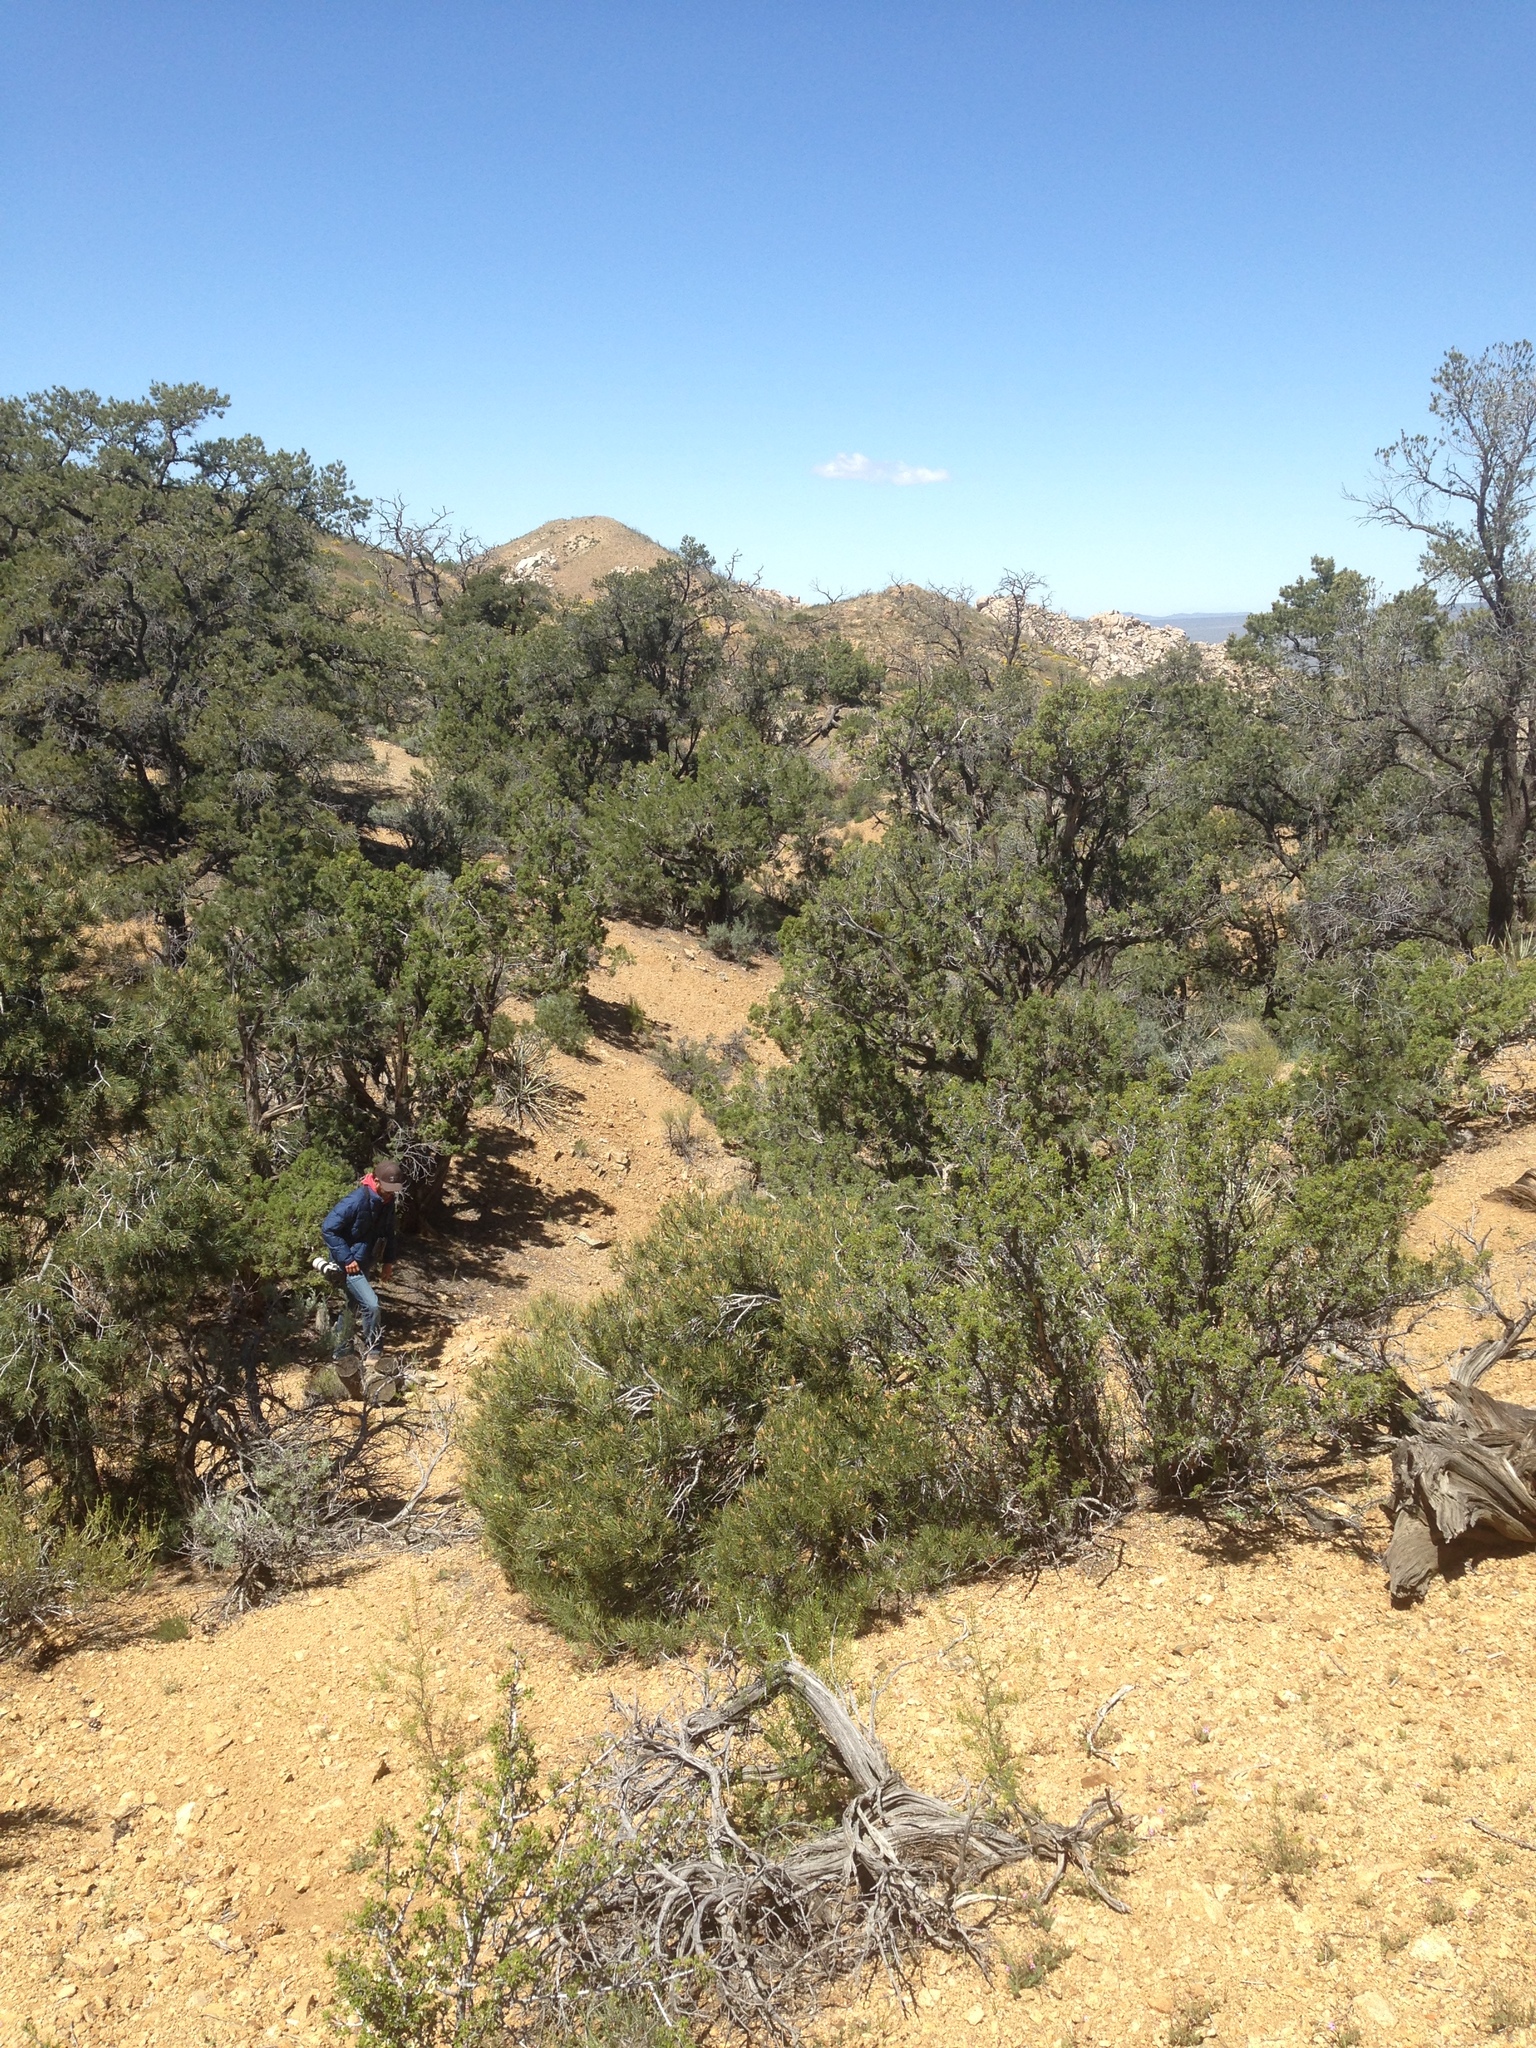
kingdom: Plantae
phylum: Tracheophyta
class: Pinopsida
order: Pinales
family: Pinaceae
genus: Pinus
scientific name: Pinus monophylla
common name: One-leaved nut pine
